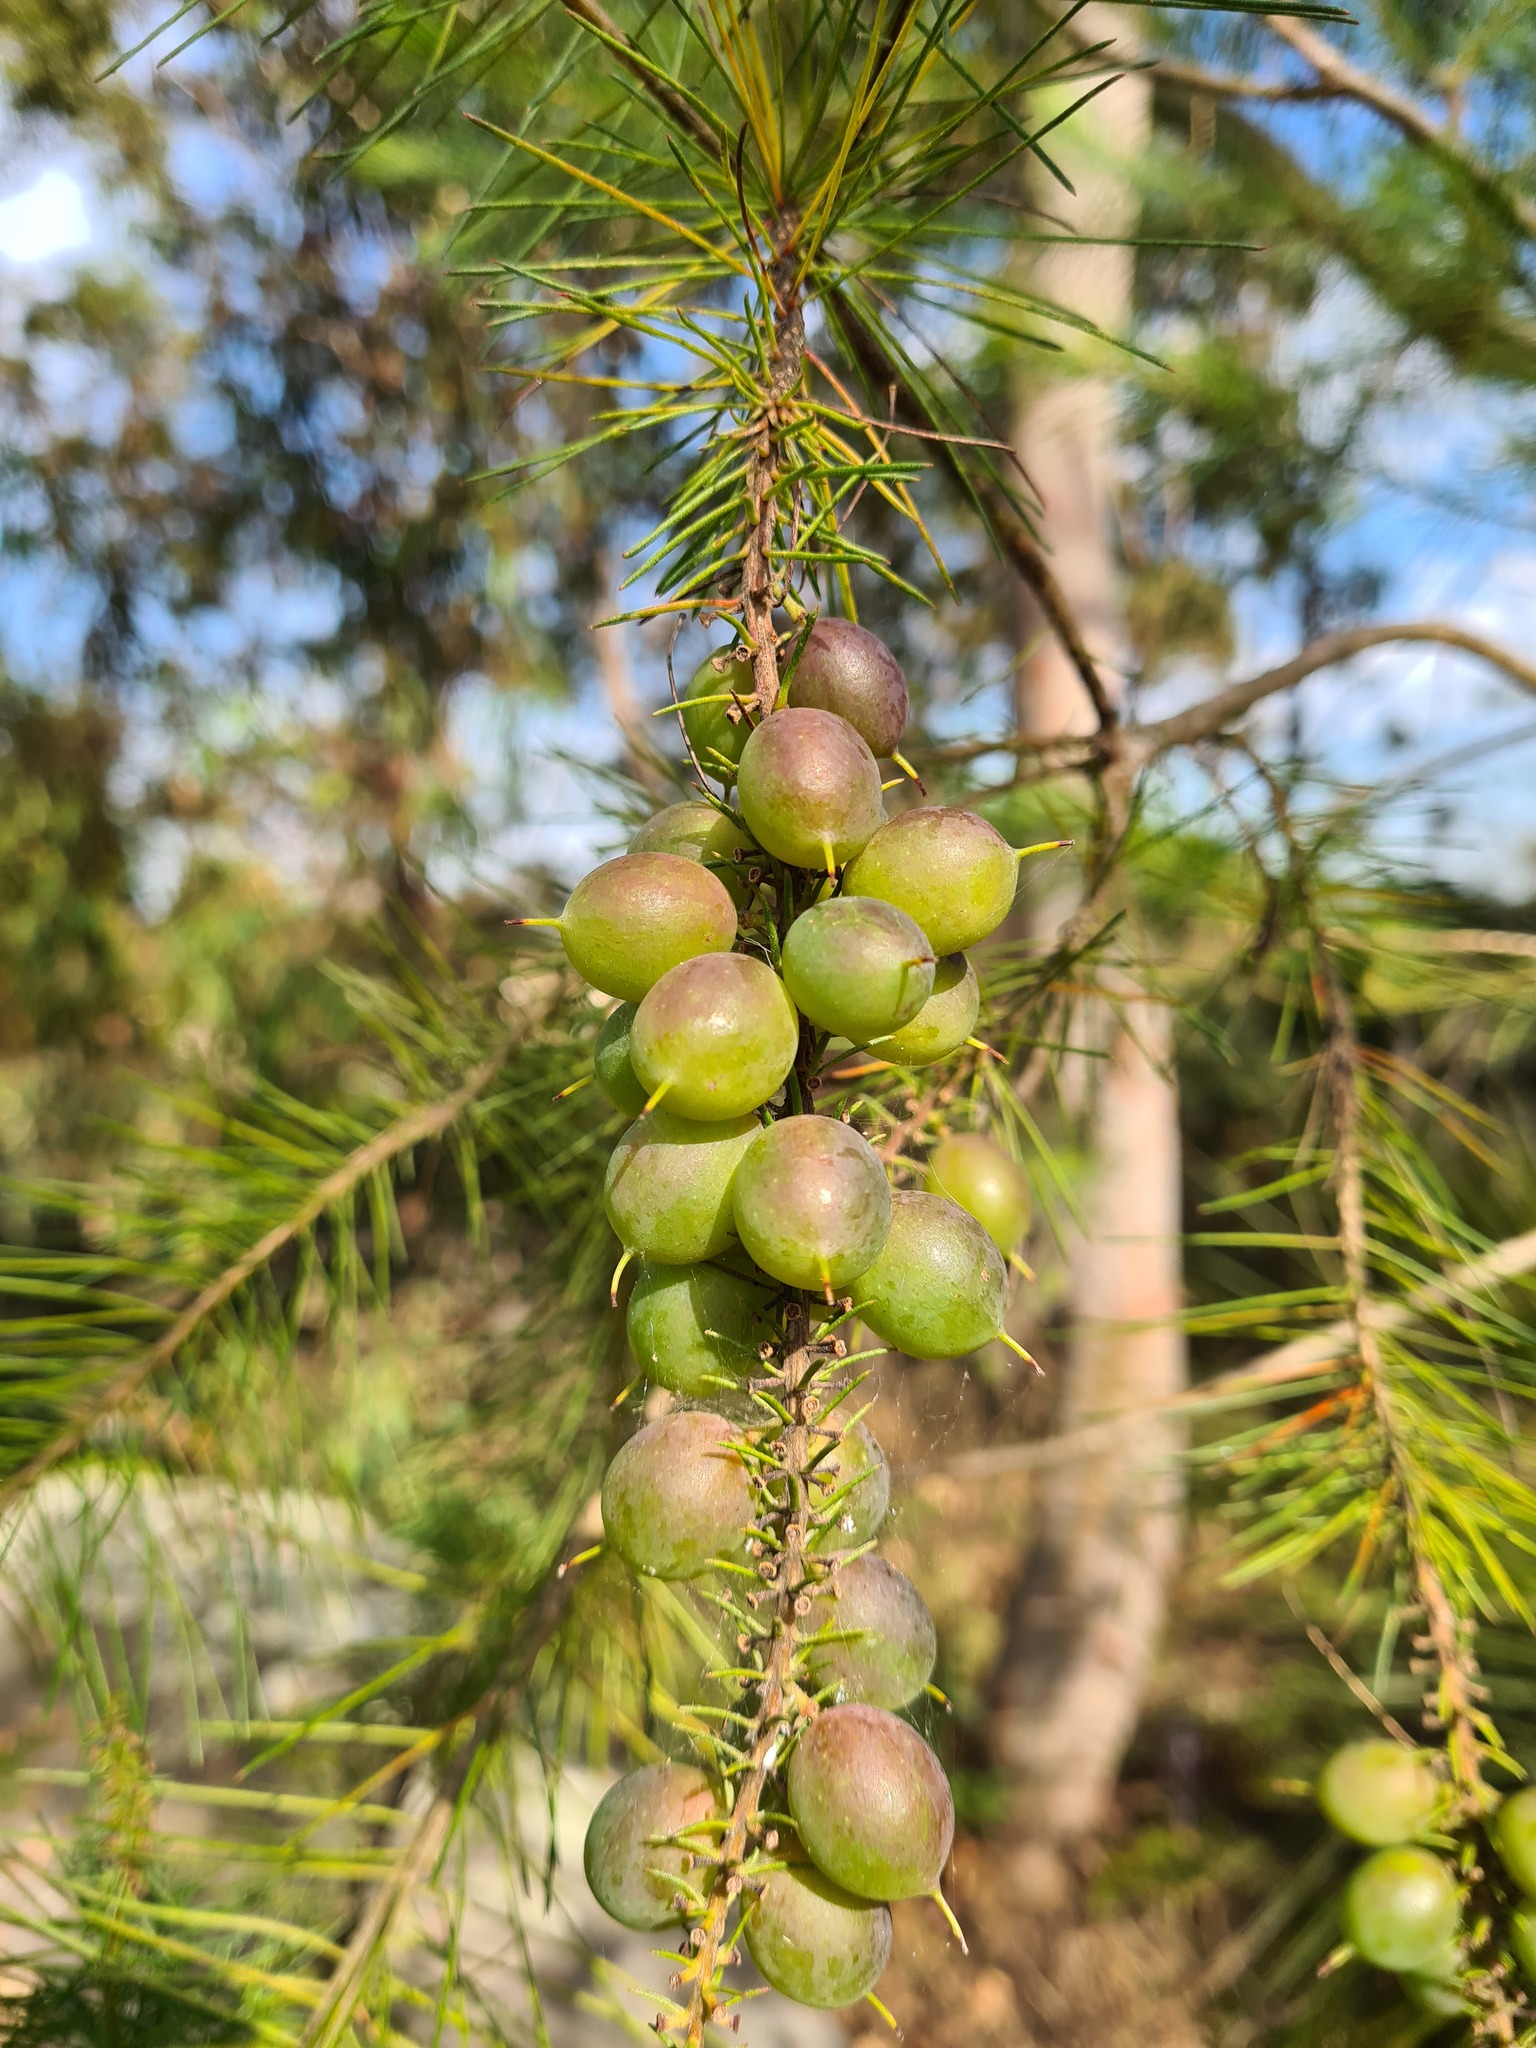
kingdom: Plantae
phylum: Tracheophyta
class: Magnoliopsida
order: Proteales
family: Proteaceae
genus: Persoonia
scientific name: Persoonia pinifolia
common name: Pine-leaf geebung
